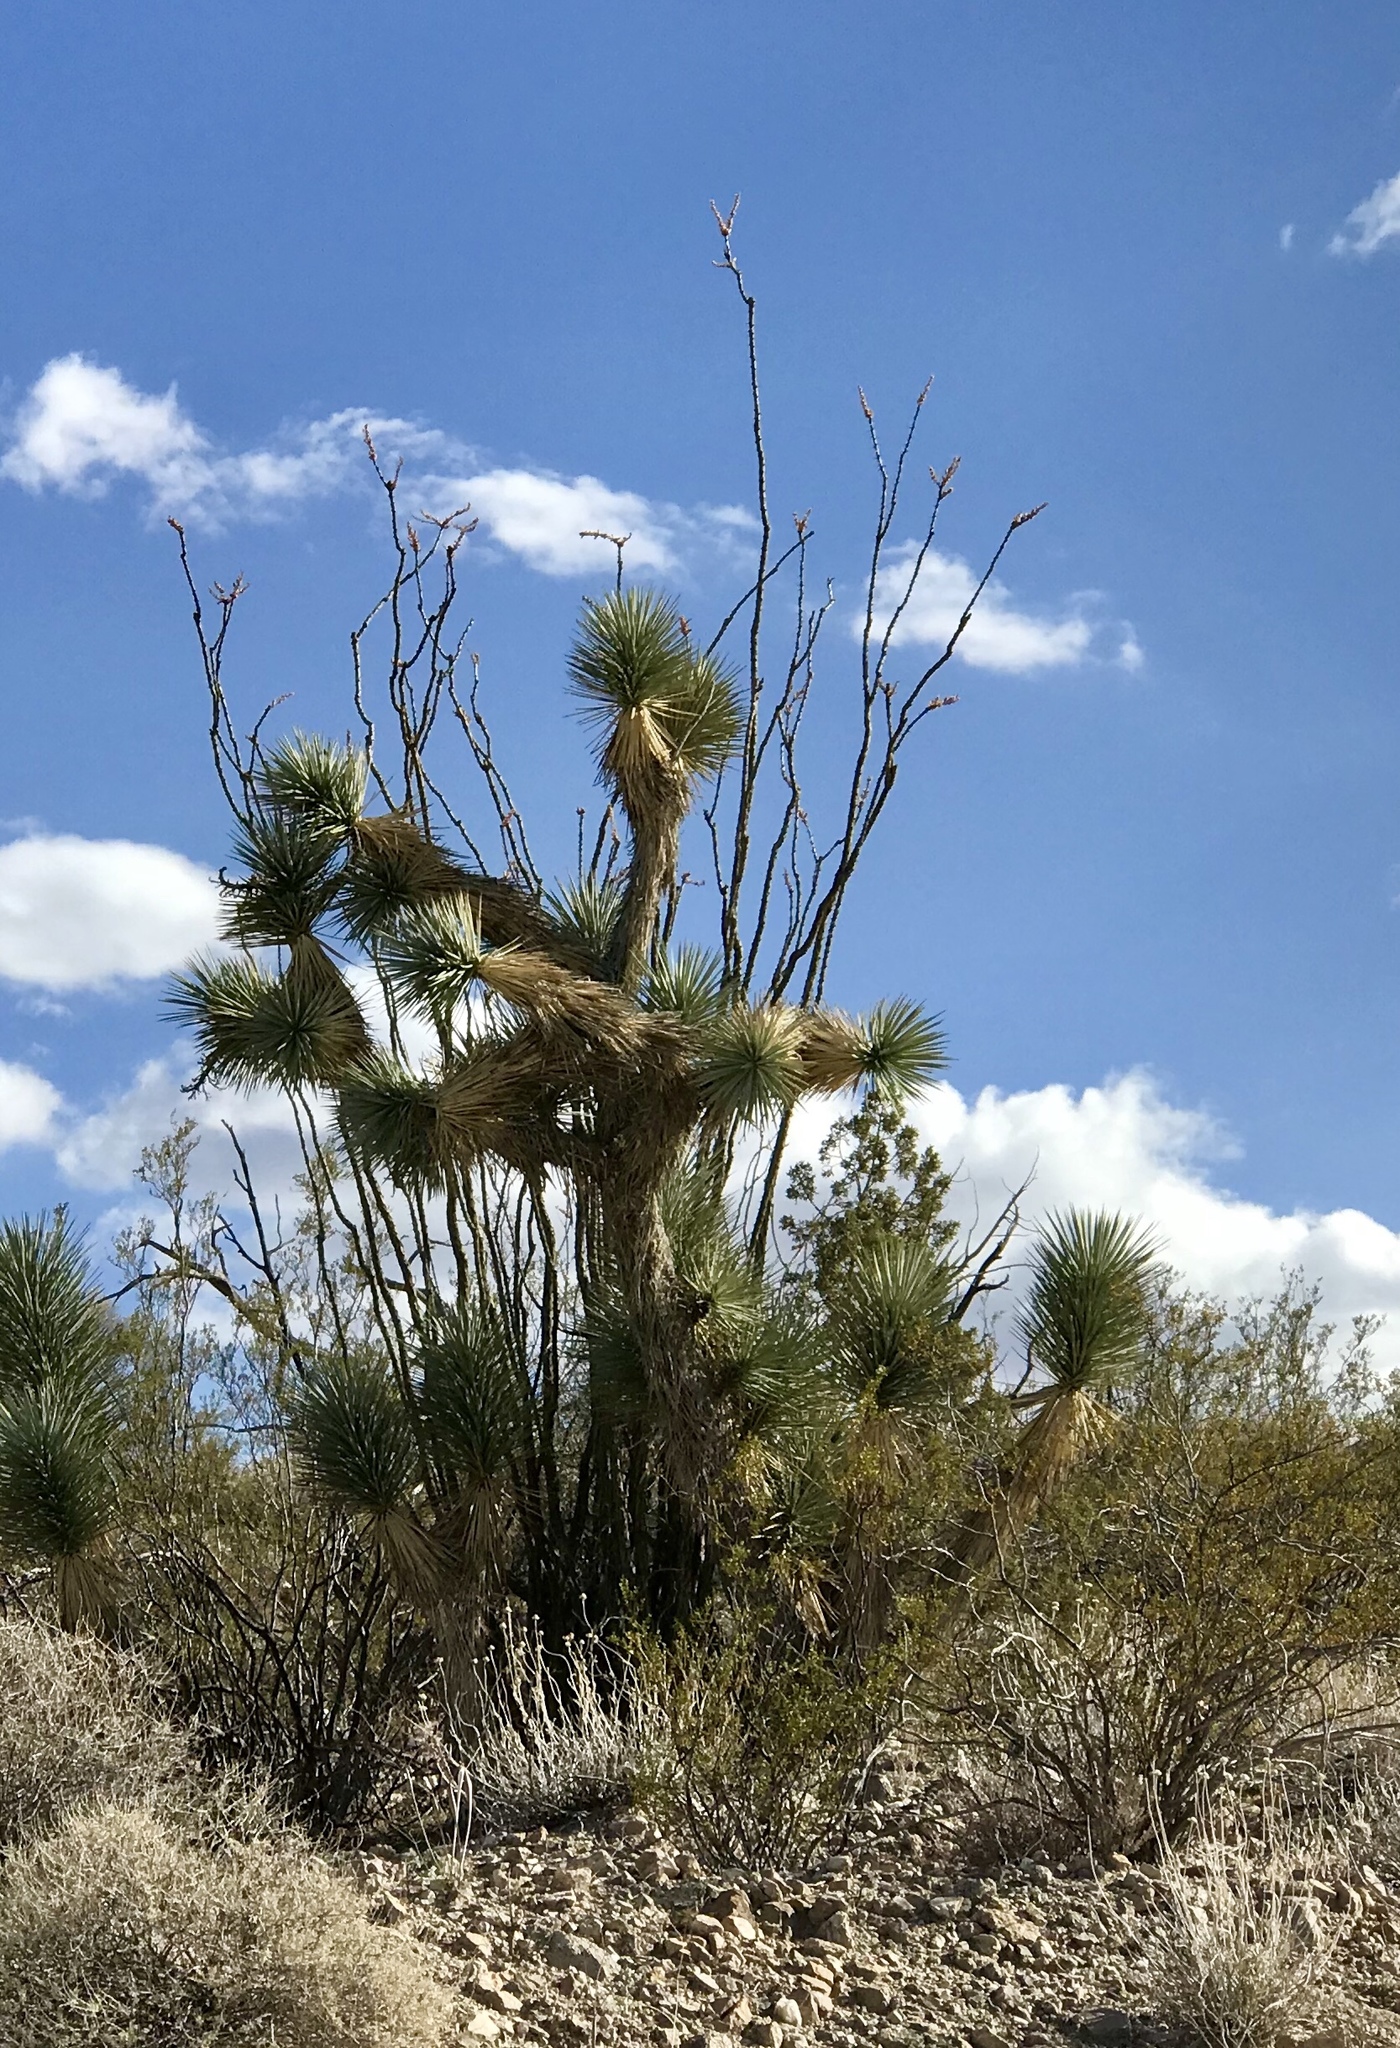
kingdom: Plantae
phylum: Tracheophyta
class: Liliopsida
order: Asparagales
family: Asparagaceae
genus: Yucca
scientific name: Yucca brevifolia
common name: Joshua tree
